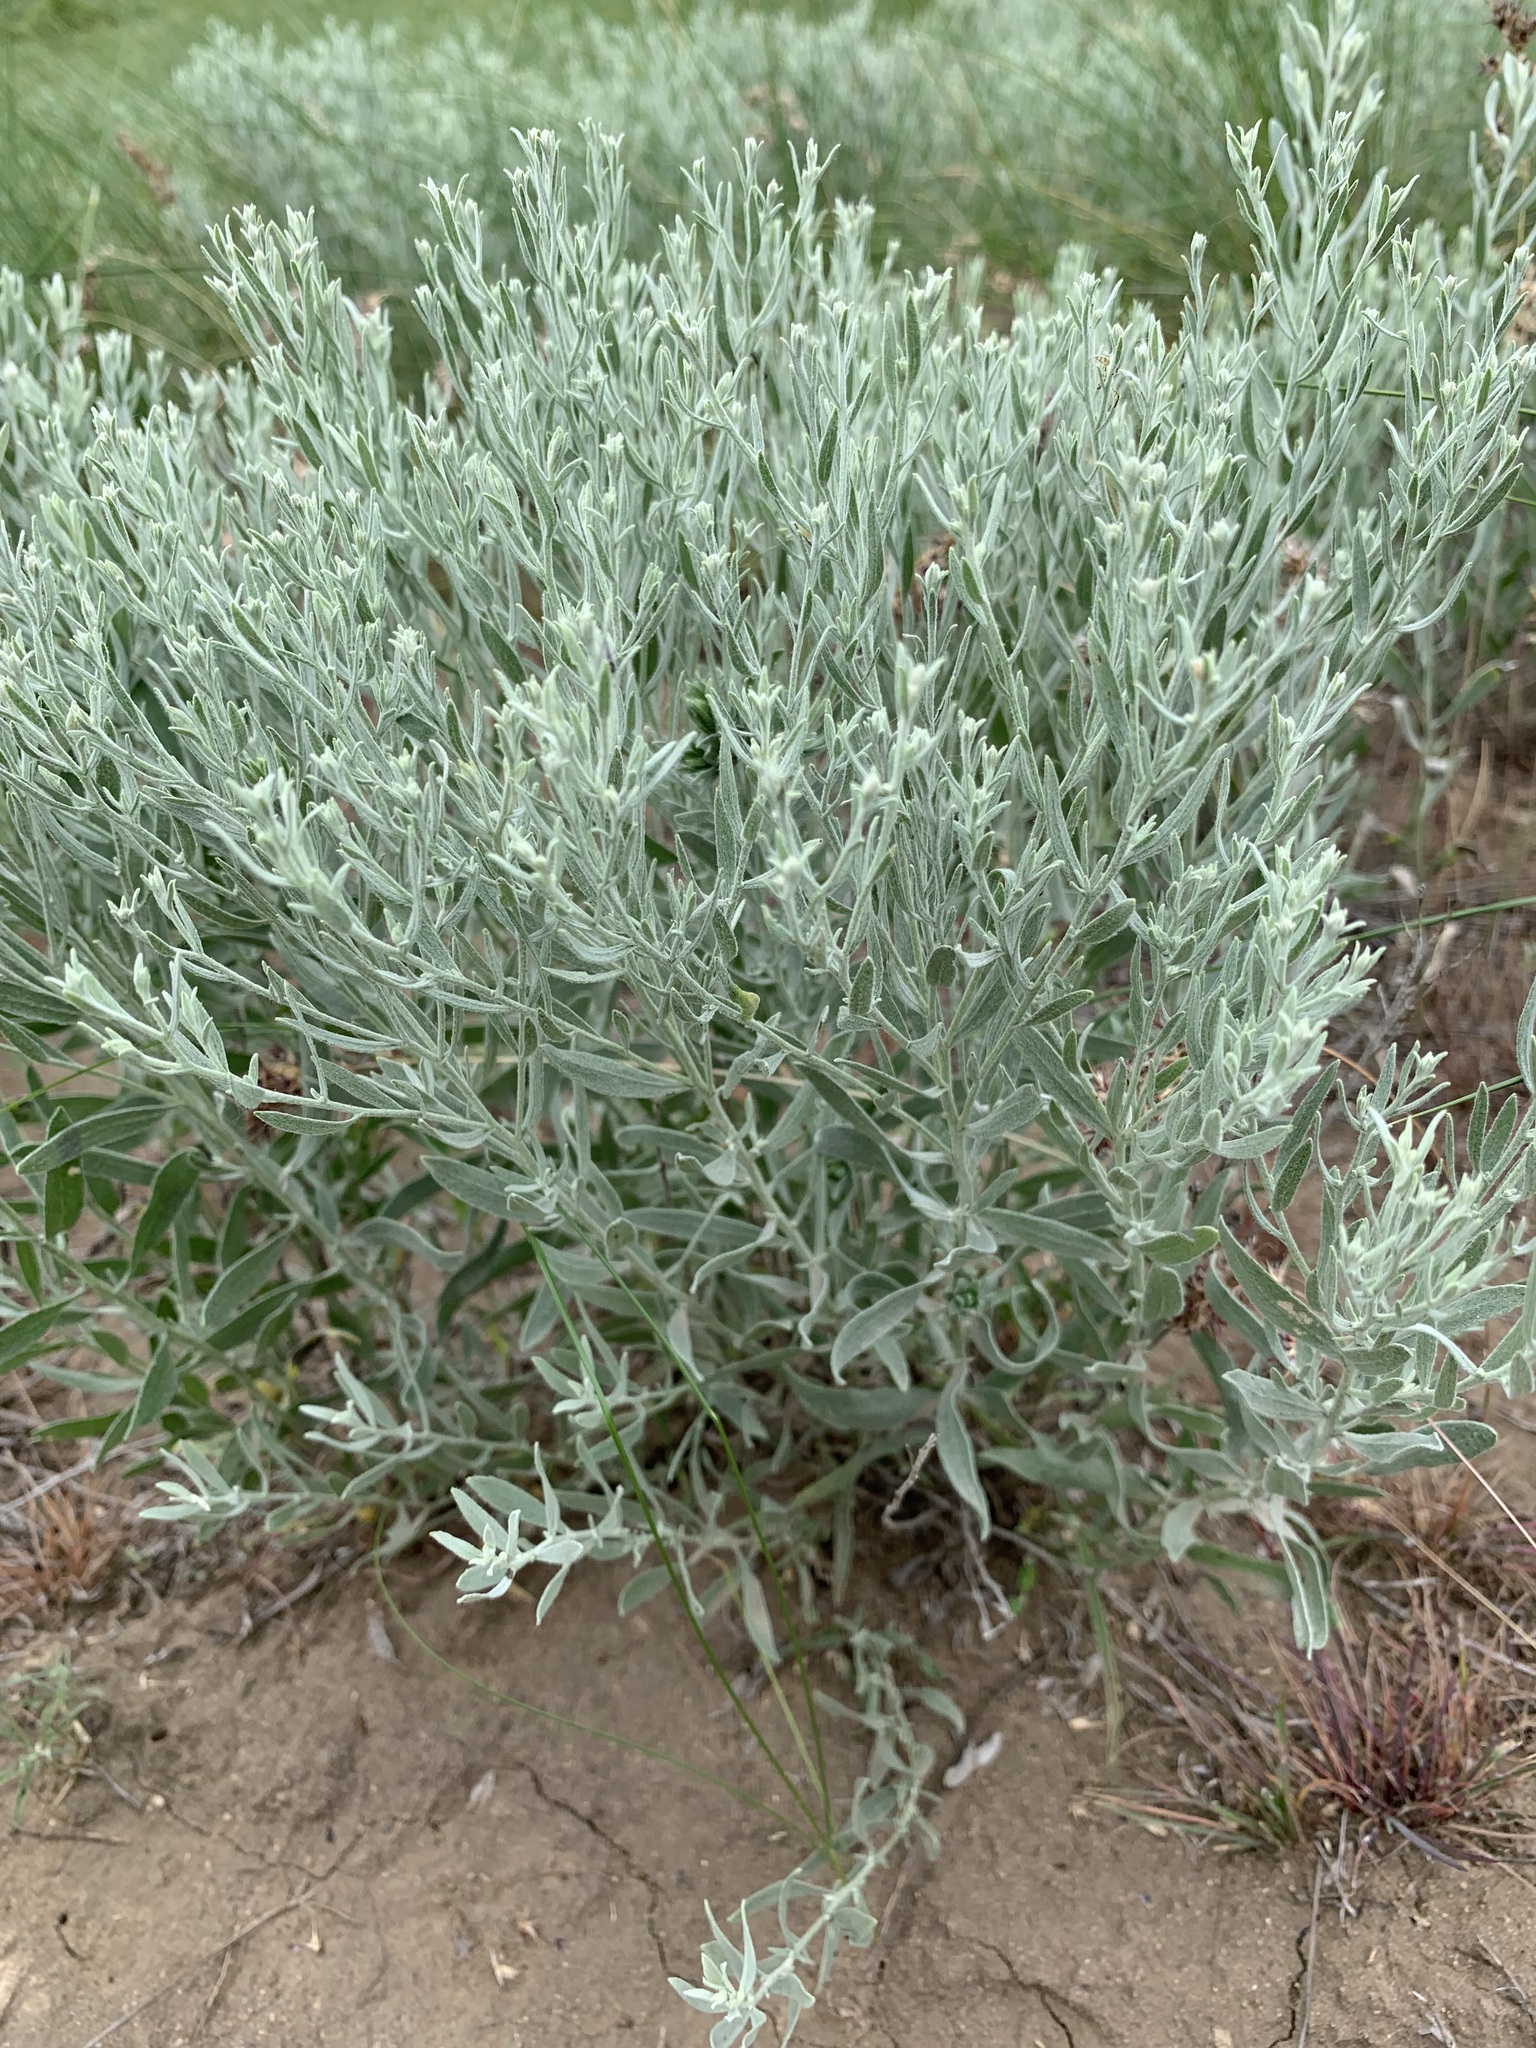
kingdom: Plantae
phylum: Tracheophyta
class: Magnoliopsida
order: Asterales
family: Asteraceae
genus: Galatella
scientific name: Galatella villosa
